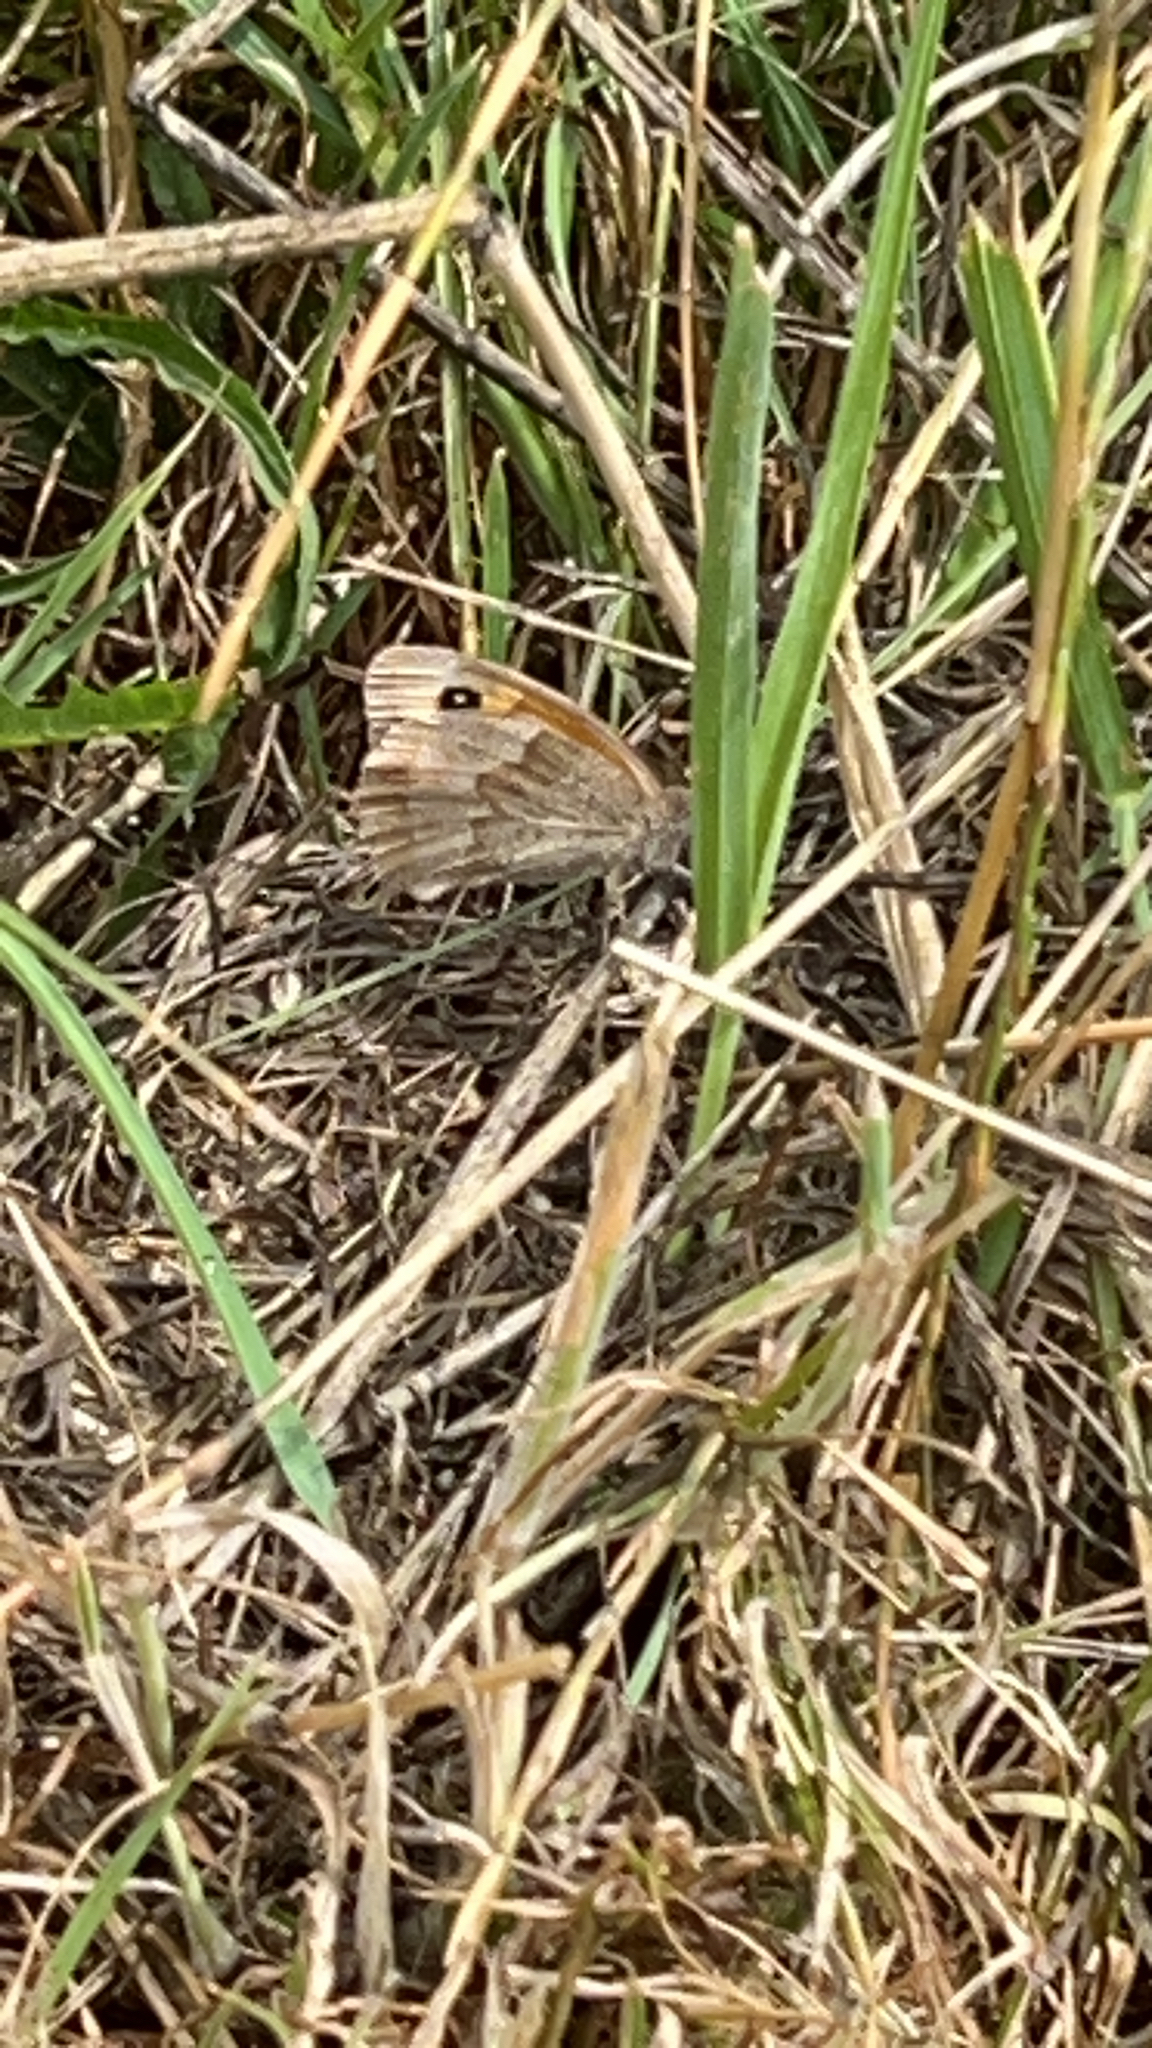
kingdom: Animalia
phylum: Arthropoda
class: Insecta
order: Lepidoptera
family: Nymphalidae
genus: Maniola
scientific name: Maniola jurtina
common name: Meadow brown
